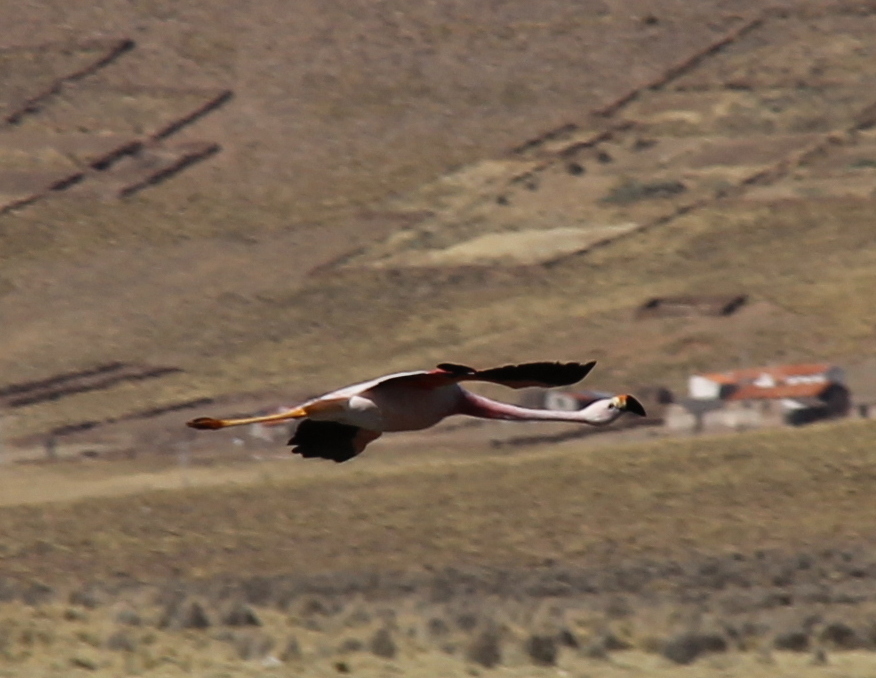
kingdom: Animalia
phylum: Chordata
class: Aves
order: Phoenicopteriformes
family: Phoenicopteridae
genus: Phoenicoparrus
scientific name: Phoenicoparrus andinus
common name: Andean flamingo
